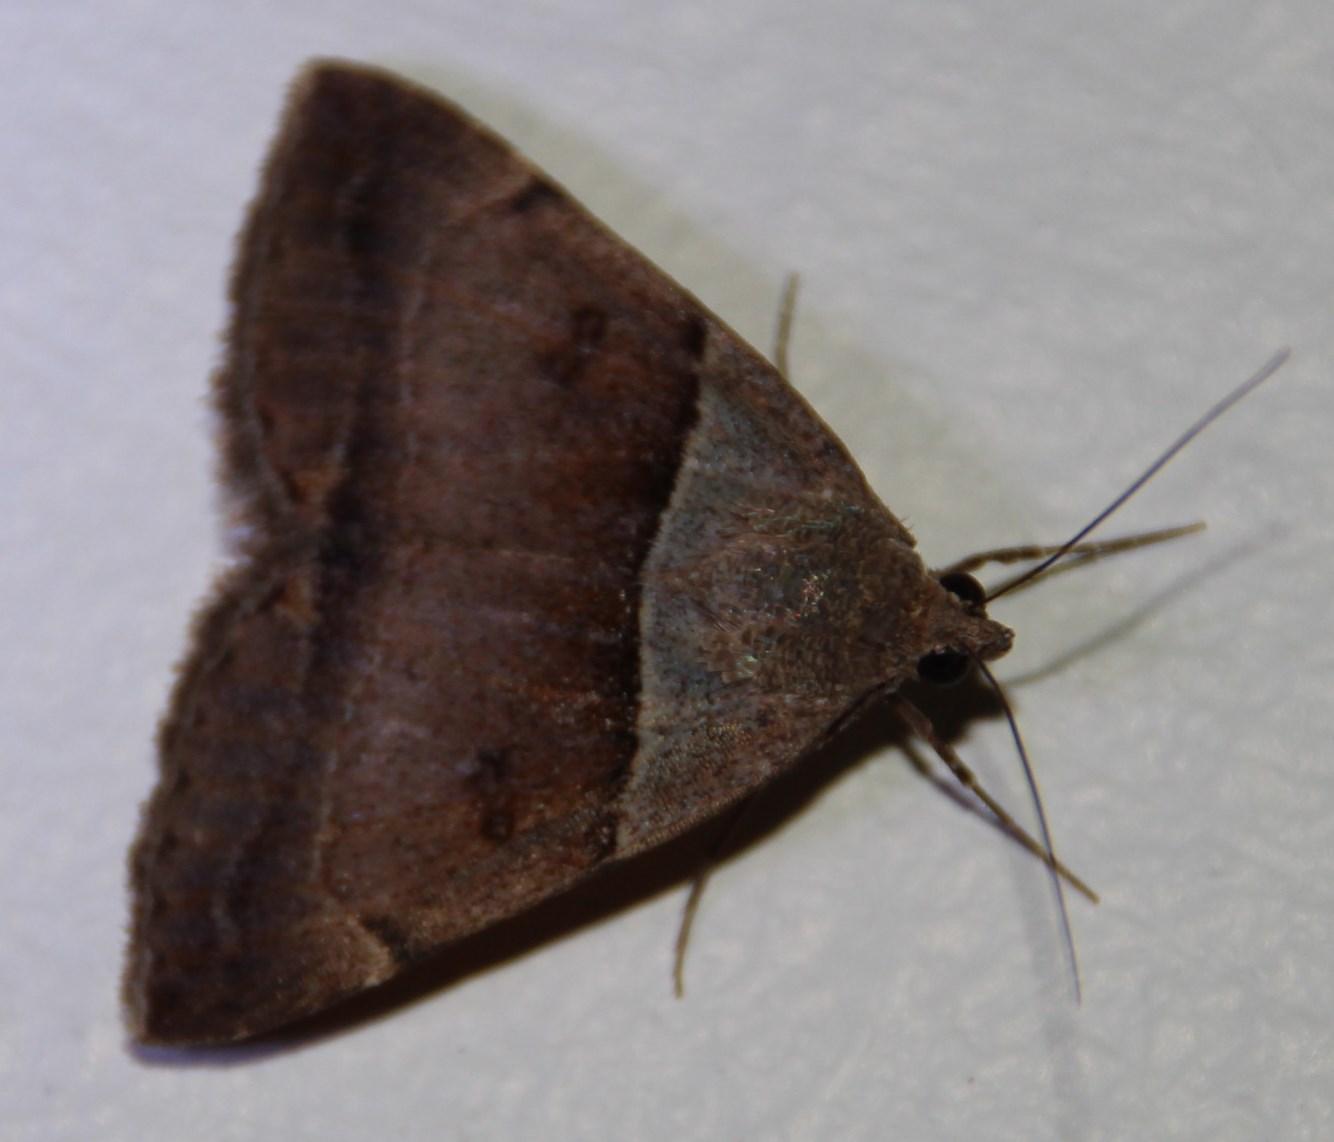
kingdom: Animalia
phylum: Arthropoda
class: Insecta
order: Lepidoptera
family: Erebidae
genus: Plecopterodes
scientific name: Plecopterodes moderata
